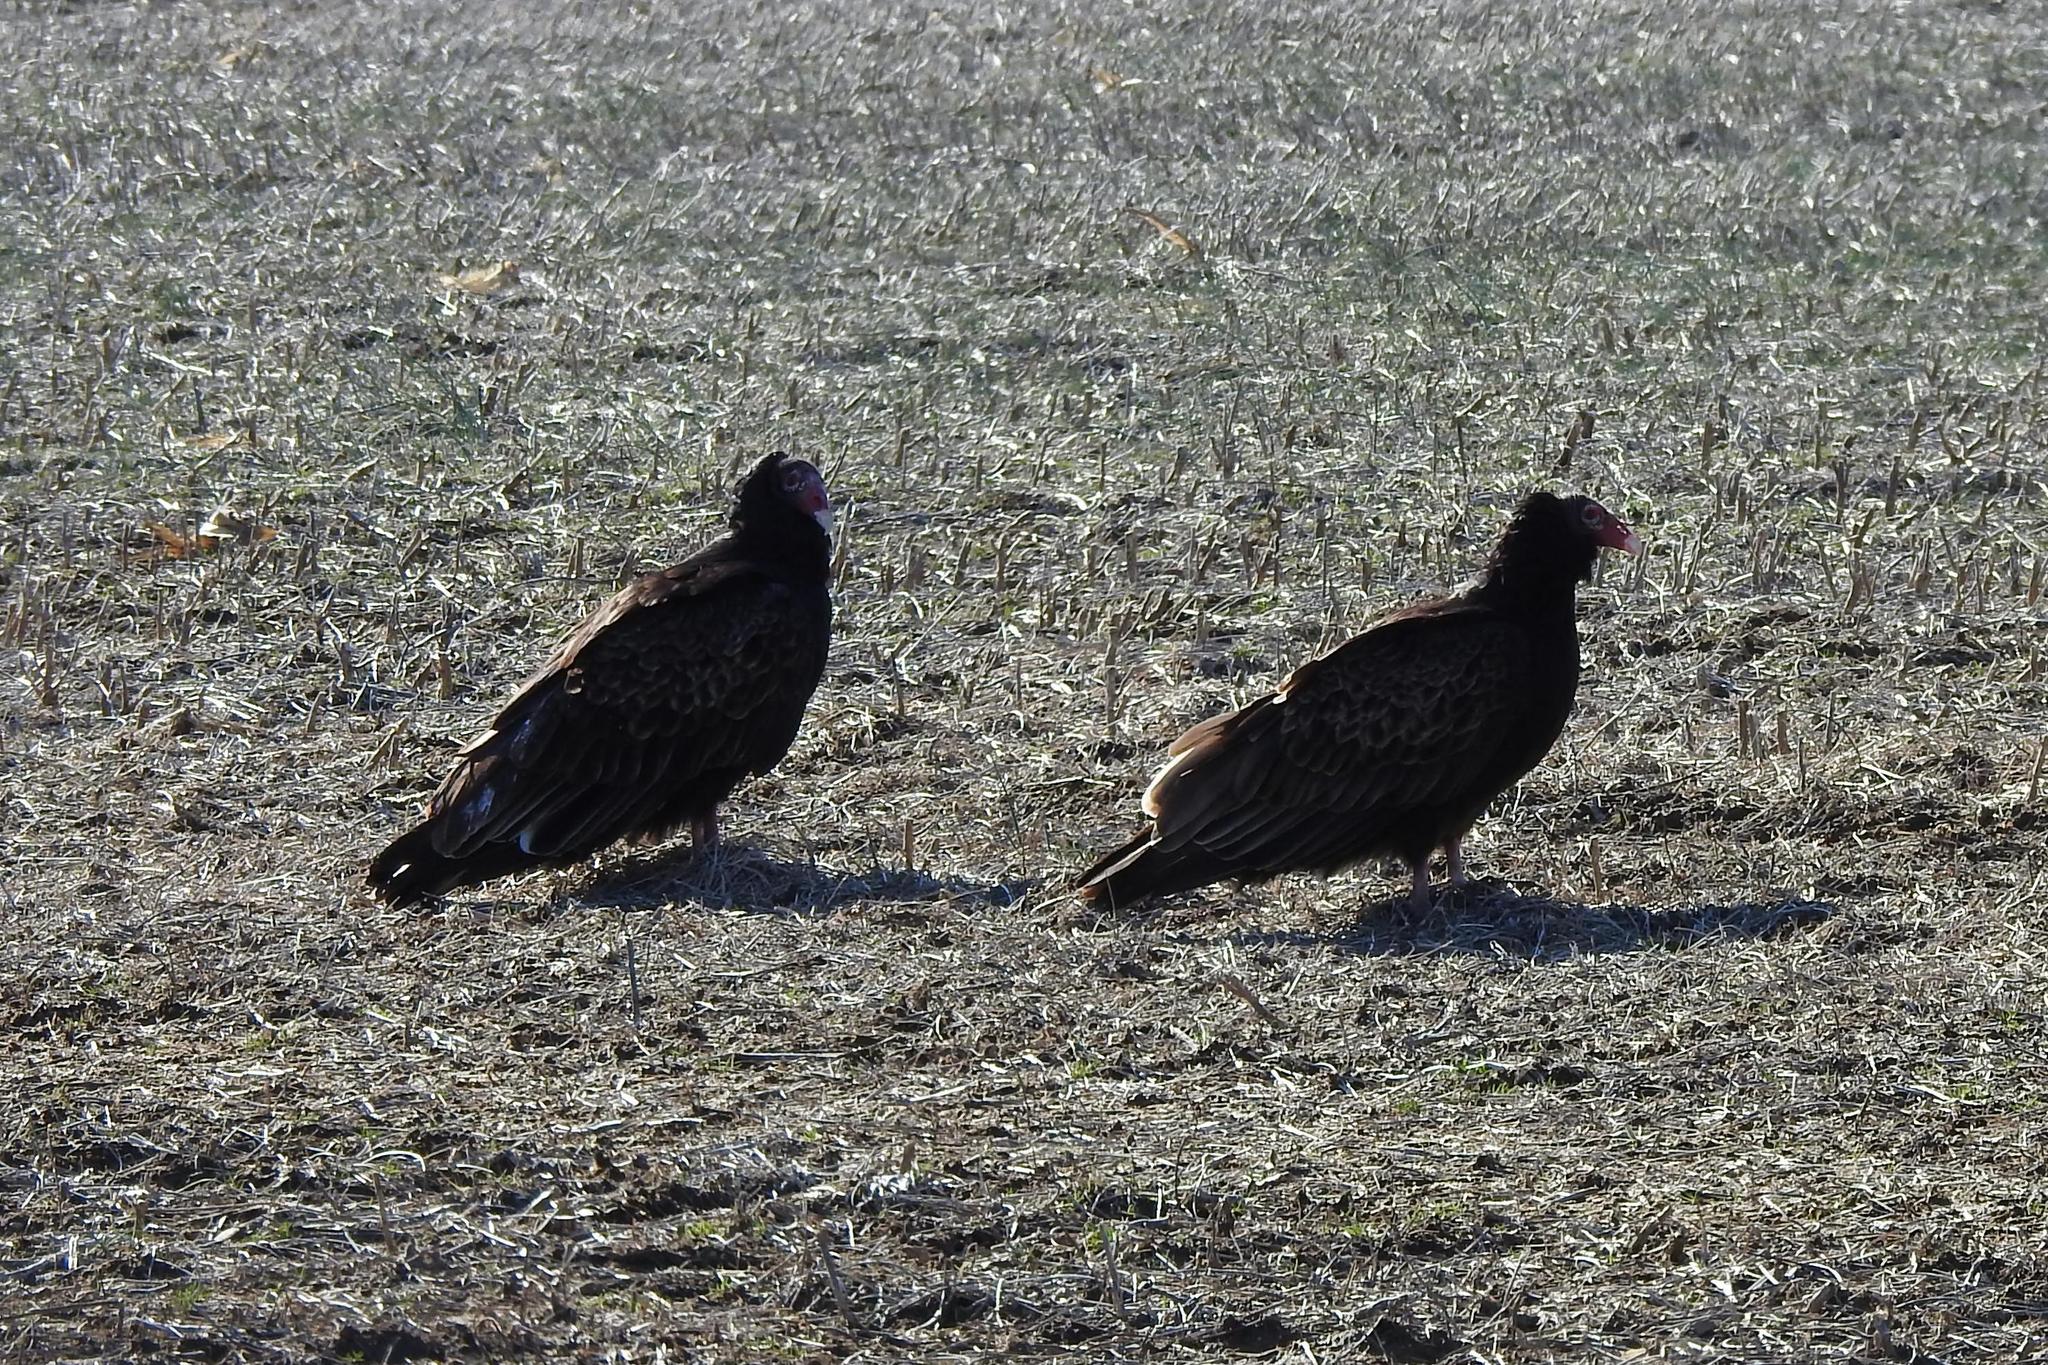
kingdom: Animalia
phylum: Chordata
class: Aves
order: Accipitriformes
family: Cathartidae
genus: Cathartes
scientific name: Cathartes aura
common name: Turkey vulture
